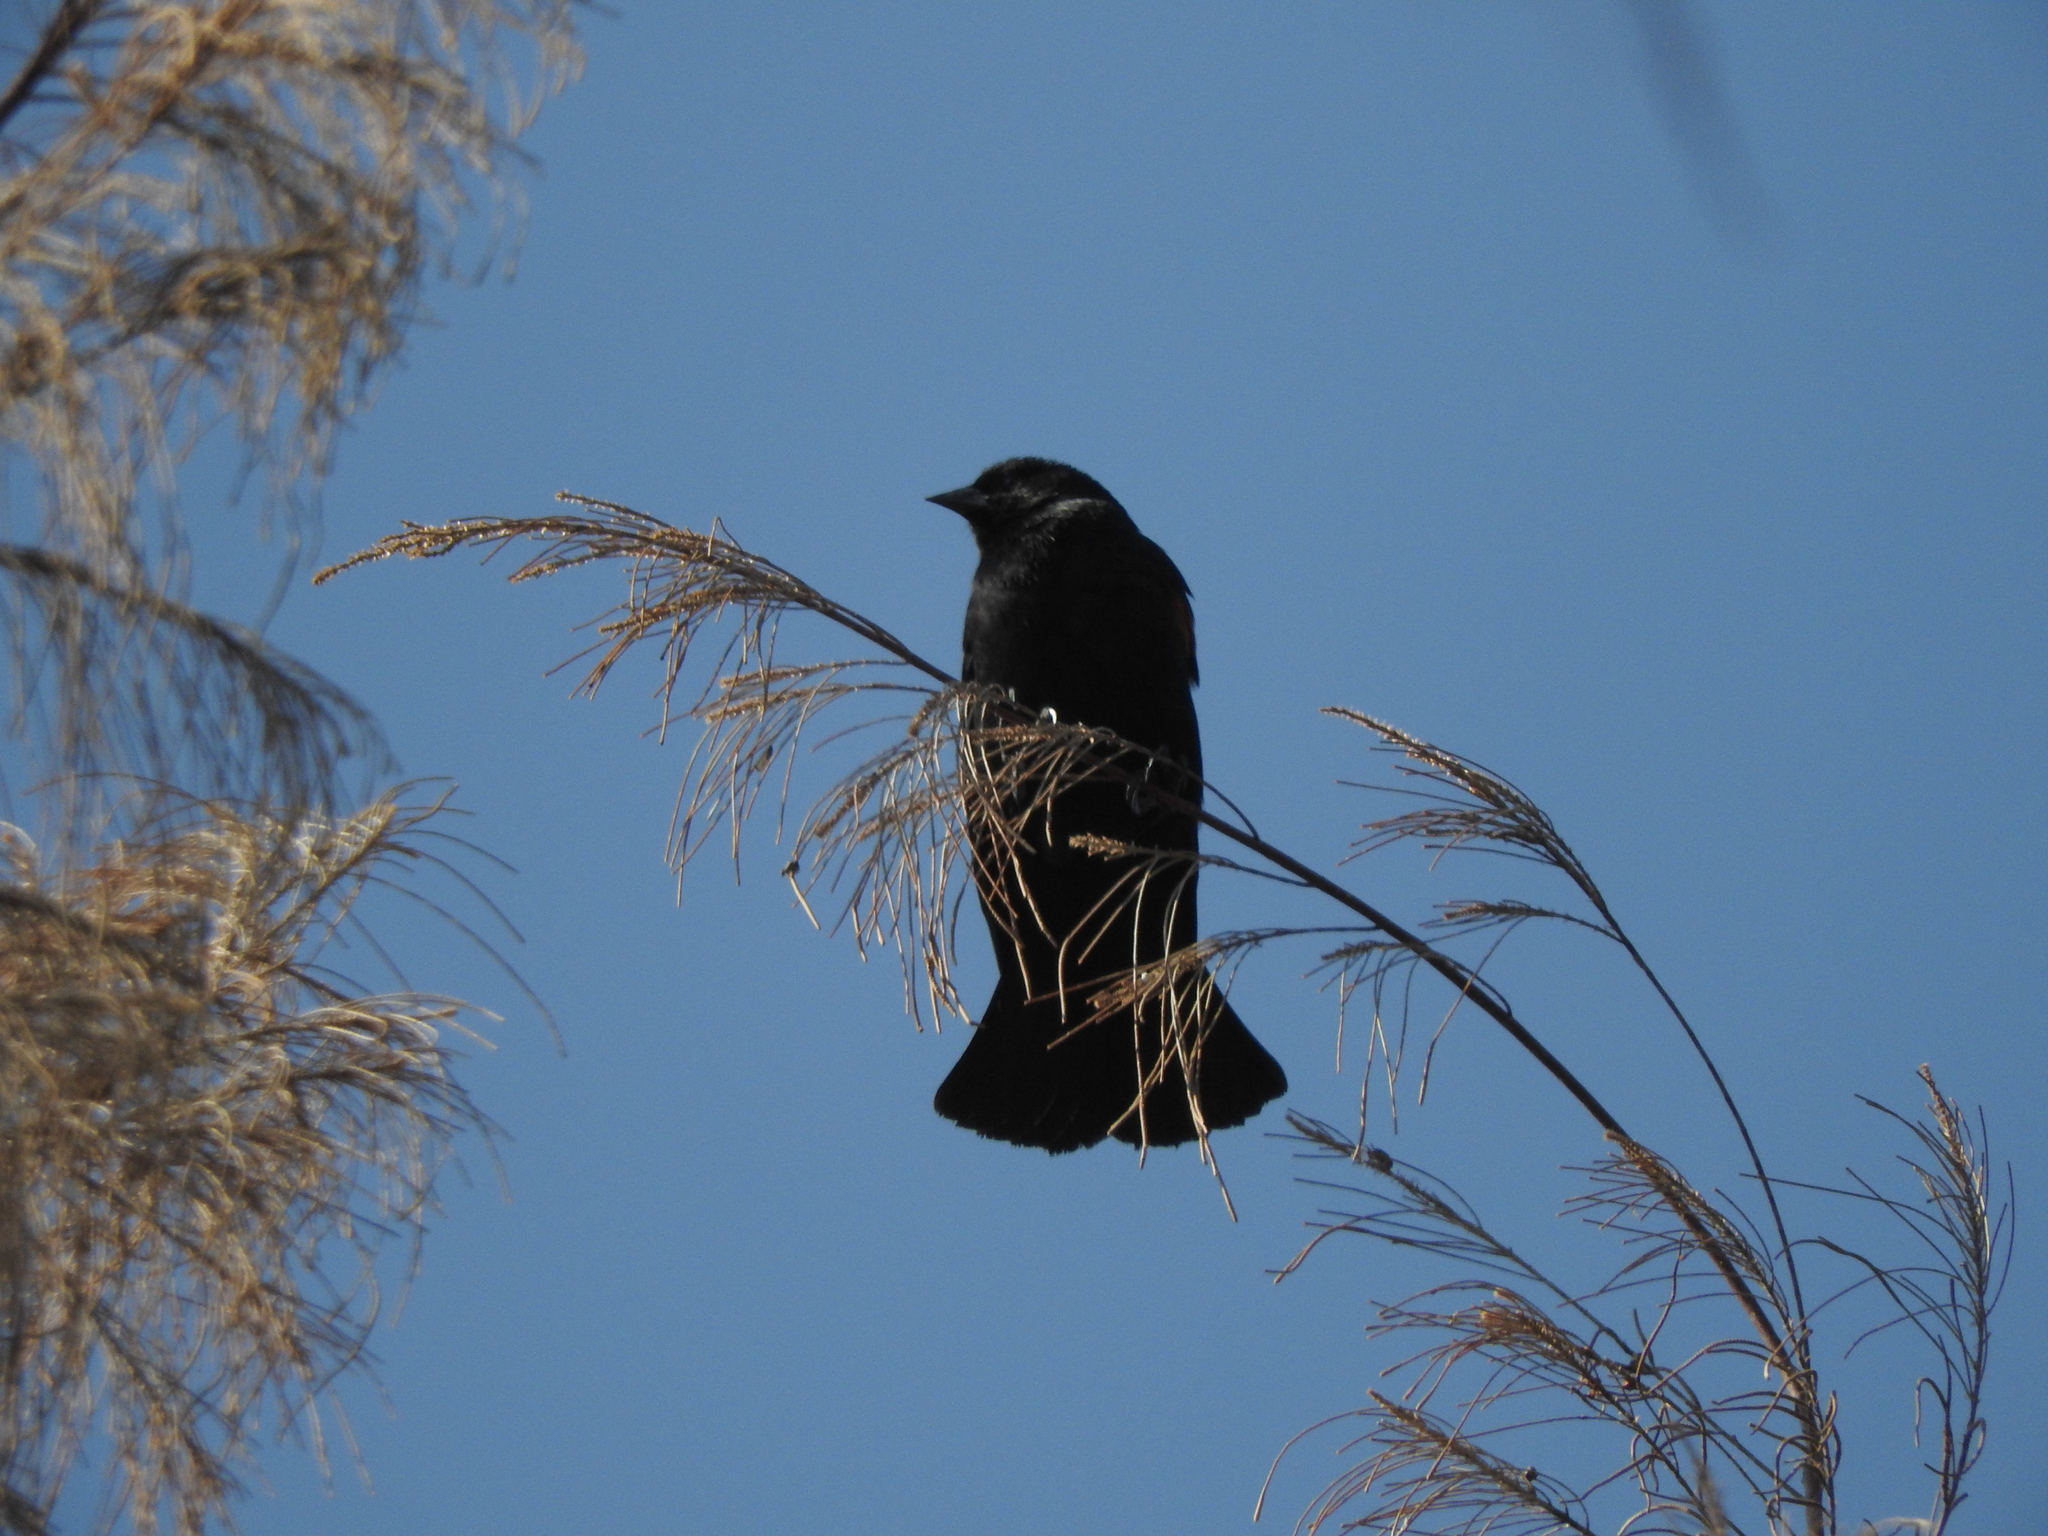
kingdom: Animalia
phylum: Chordata
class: Aves
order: Passeriformes
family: Icteridae
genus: Agelaius
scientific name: Agelaius phoeniceus
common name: Red-winged blackbird
